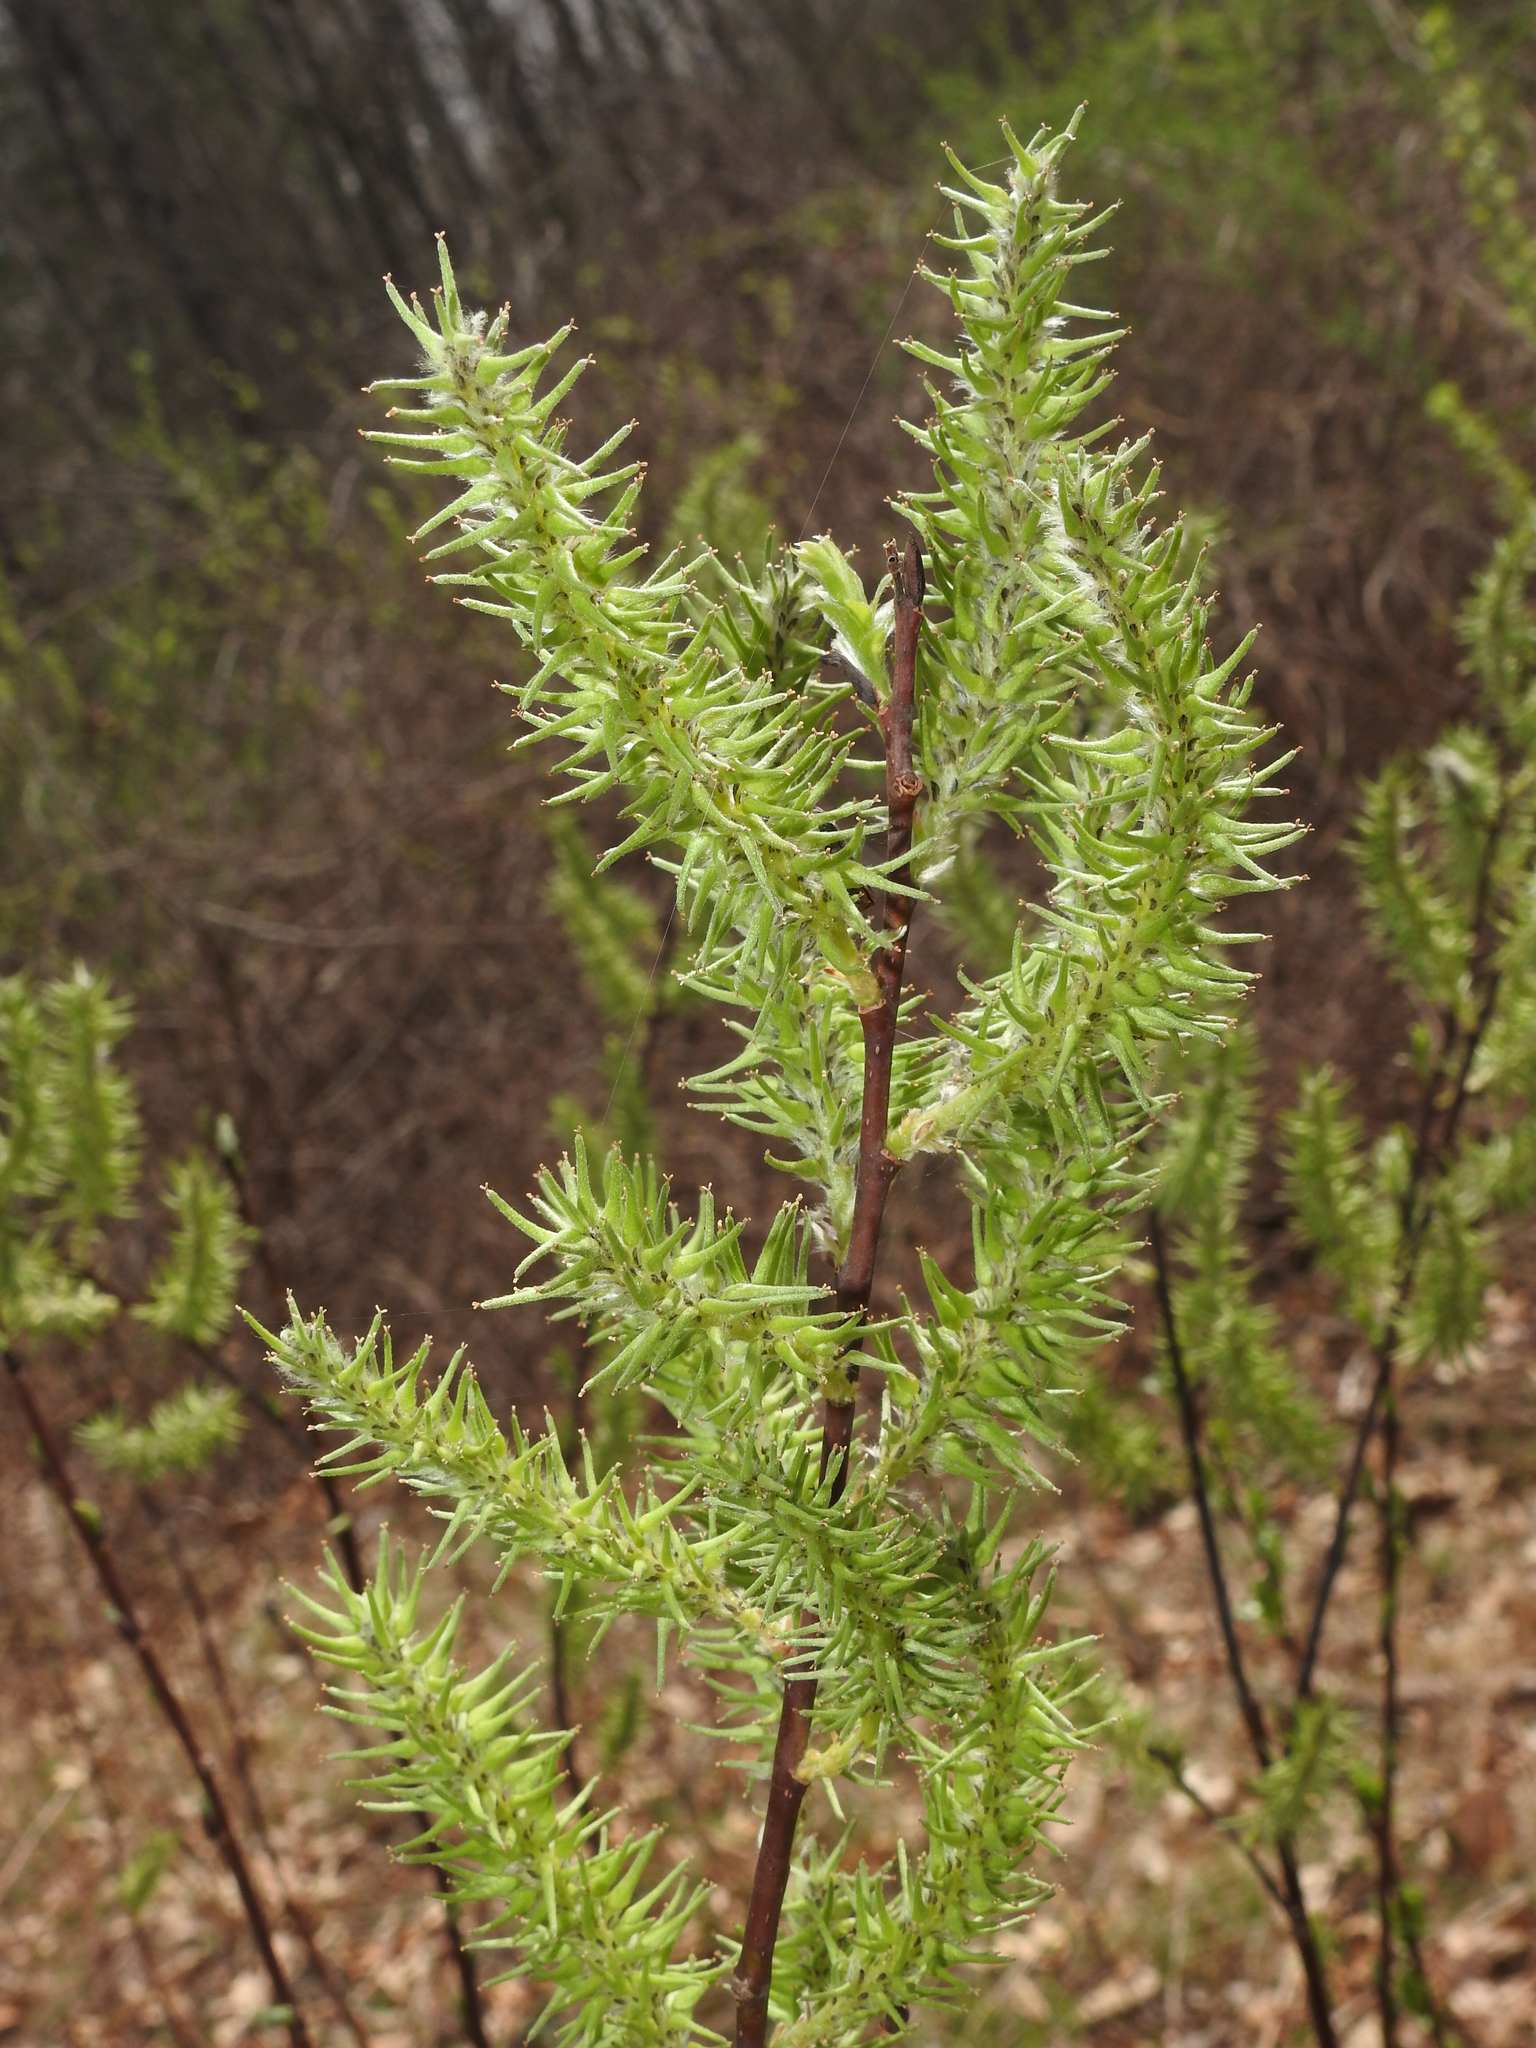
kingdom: Plantae
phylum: Tracheophyta
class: Magnoliopsida
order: Malpighiales
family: Salicaceae
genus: Salix
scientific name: Salix discolor
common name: Glaucous willow
